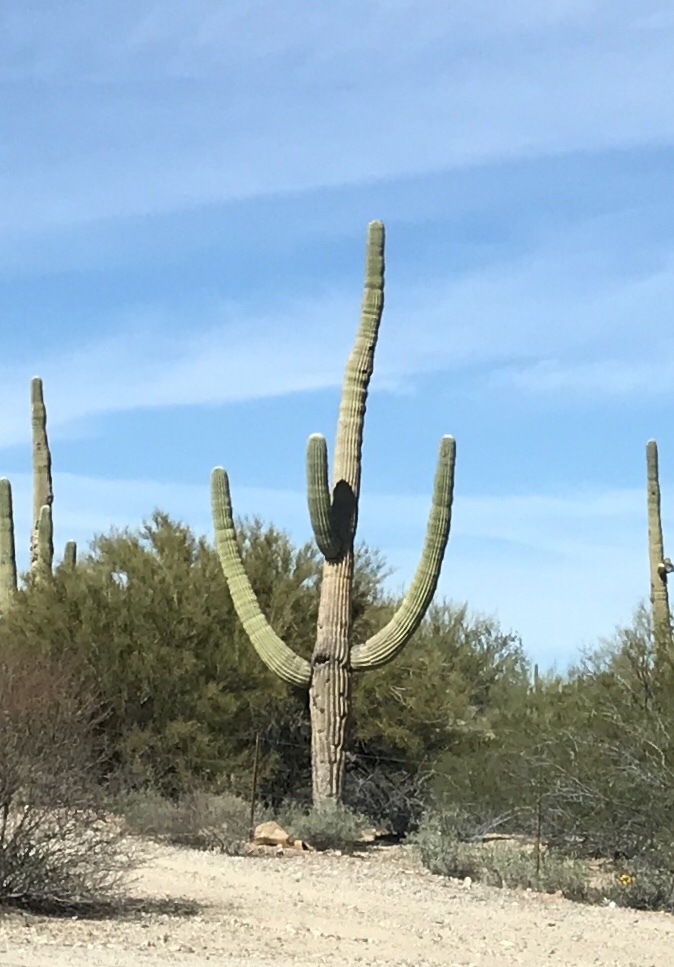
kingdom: Plantae
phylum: Tracheophyta
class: Magnoliopsida
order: Caryophyllales
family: Cactaceae
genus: Carnegiea
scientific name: Carnegiea gigantea
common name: Saguaro
